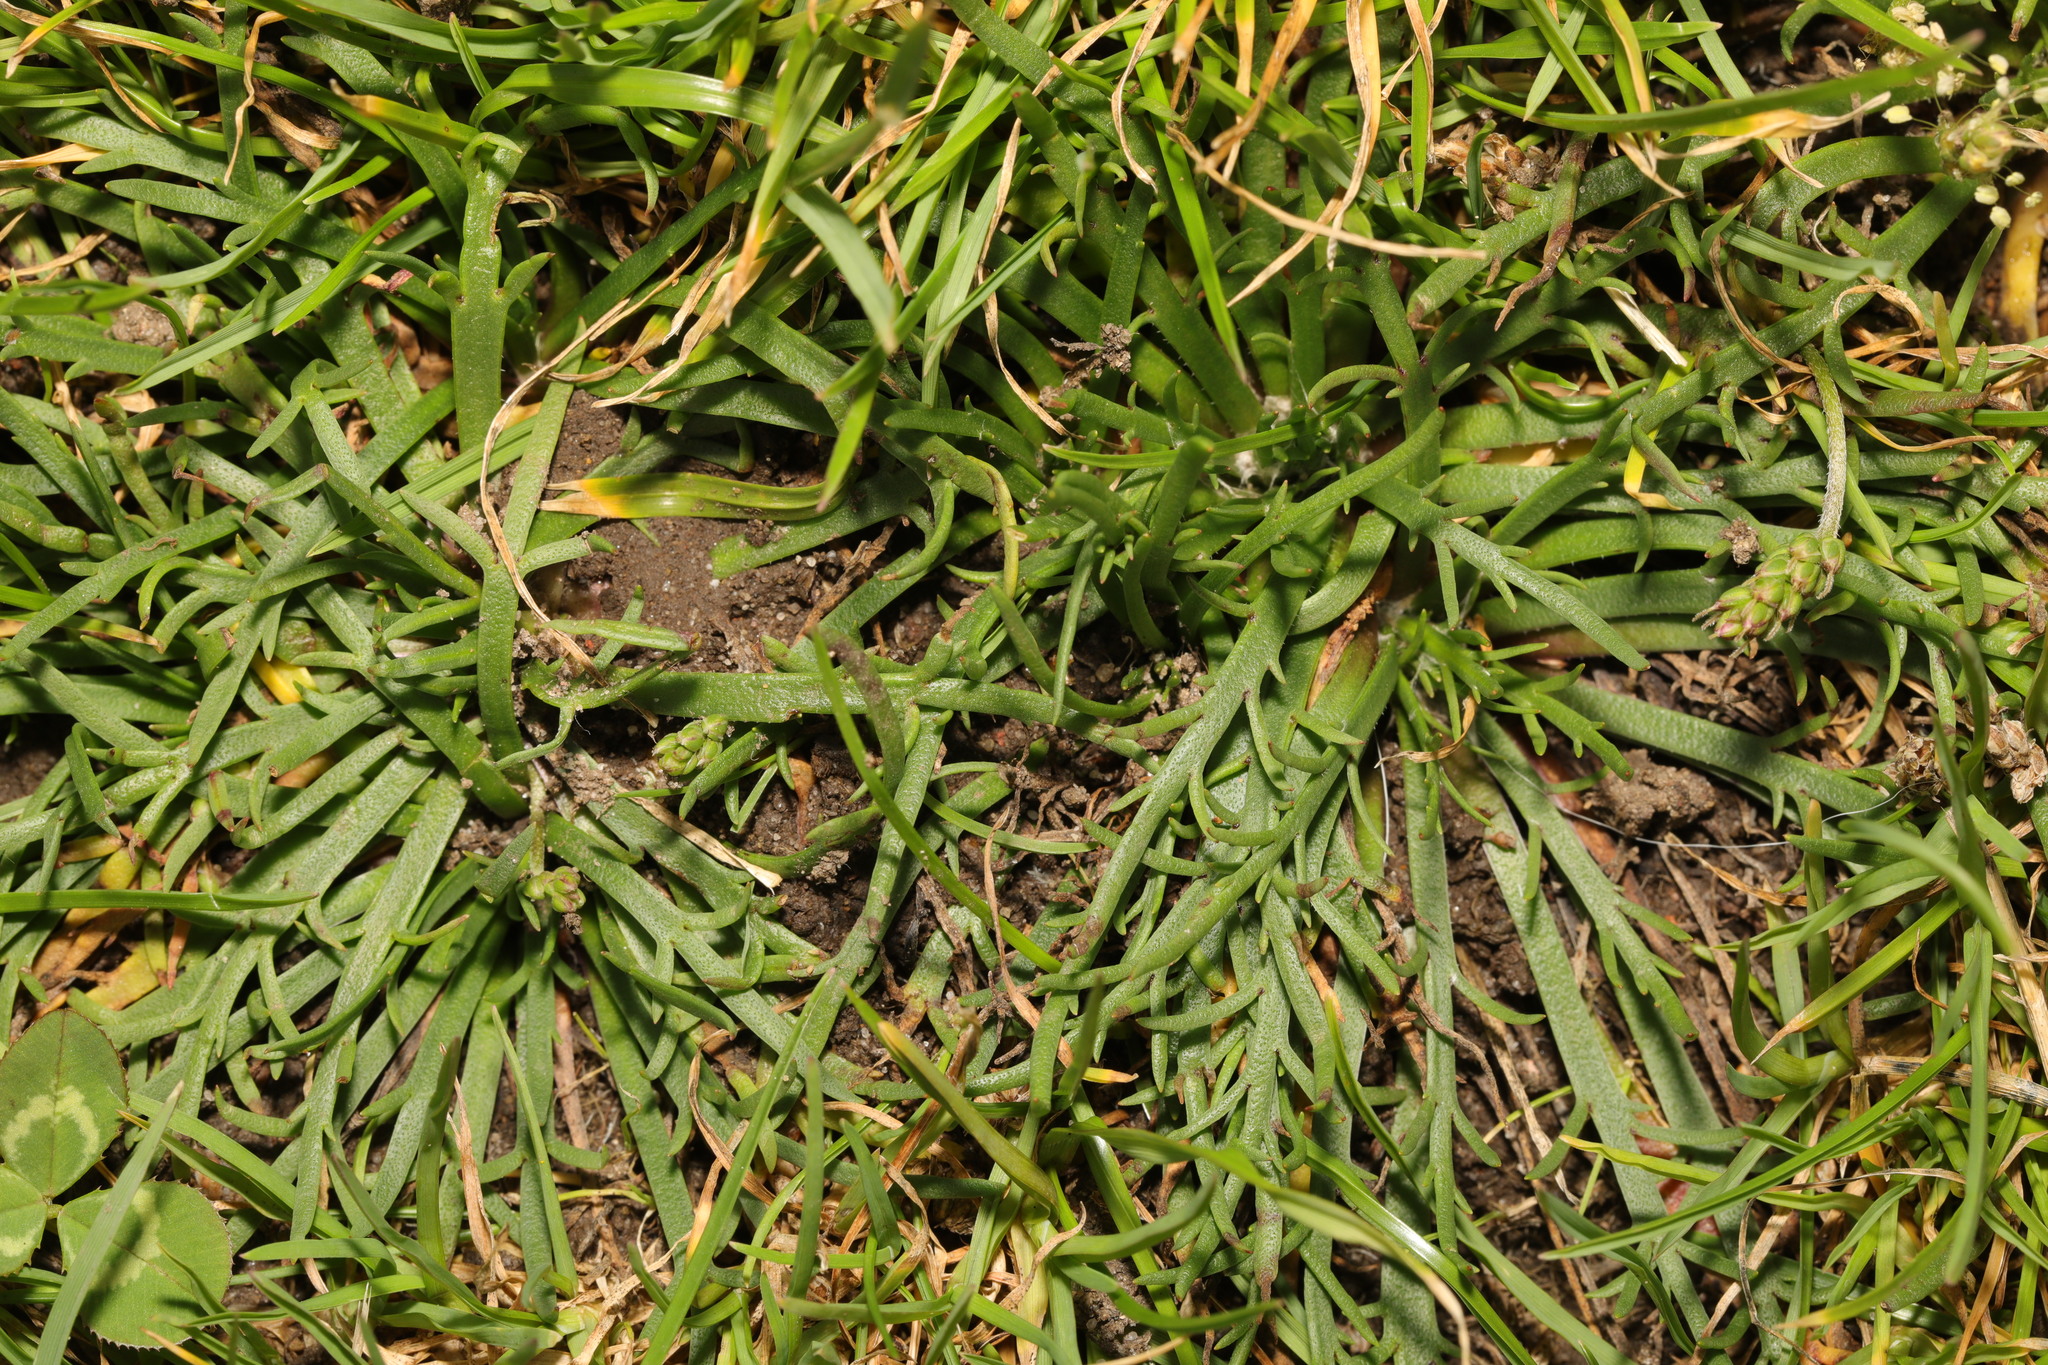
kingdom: Plantae
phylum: Tracheophyta
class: Magnoliopsida
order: Lamiales
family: Plantaginaceae
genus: Plantago
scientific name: Plantago coronopus
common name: Buck's-horn plantain
